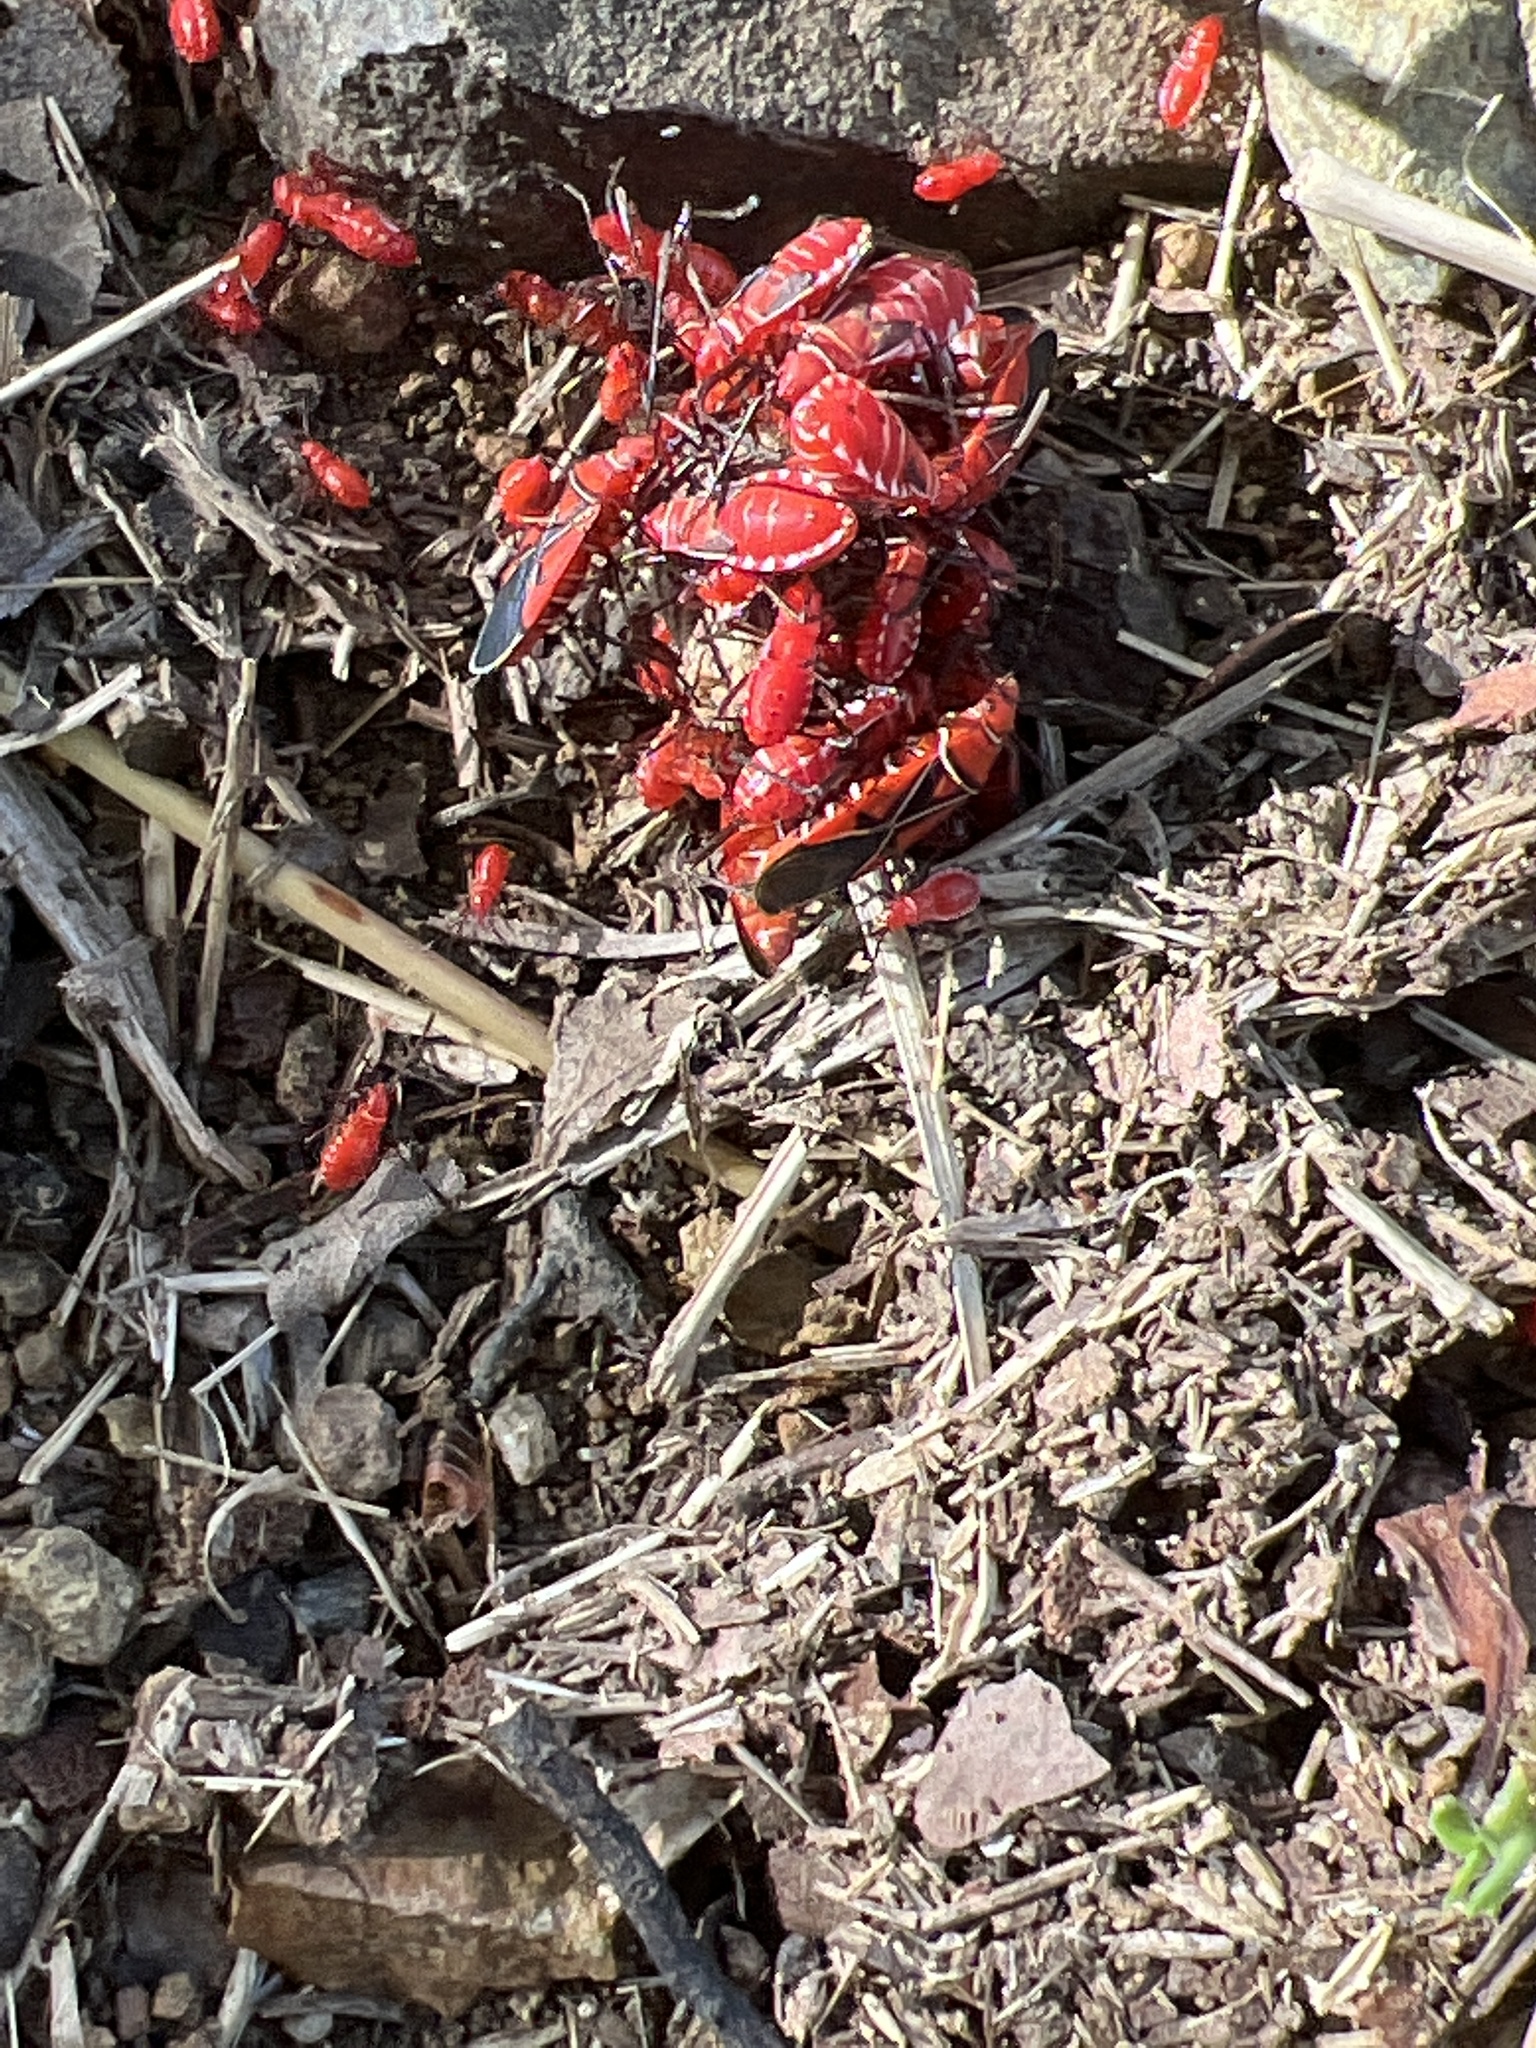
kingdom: Animalia
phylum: Arthropoda
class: Insecta
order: Hemiptera
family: Pyrrhocoridae
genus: Dysdercus
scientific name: Dysdercus andreae
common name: St. andrew's cotton stainer
